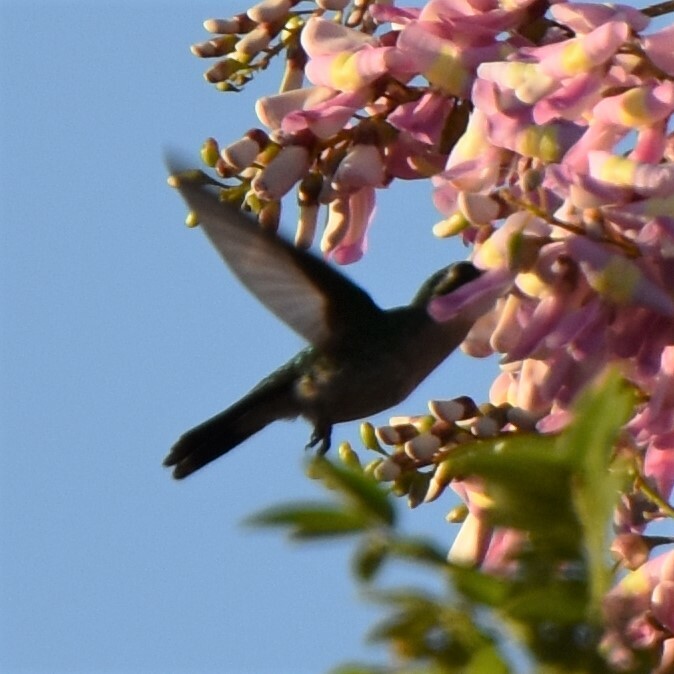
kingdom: Animalia
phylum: Chordata
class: Aves
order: Apodiformes
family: Trochilidae
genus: Cynanthus
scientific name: Cynanthus canivetii
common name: Canivet's emerald
